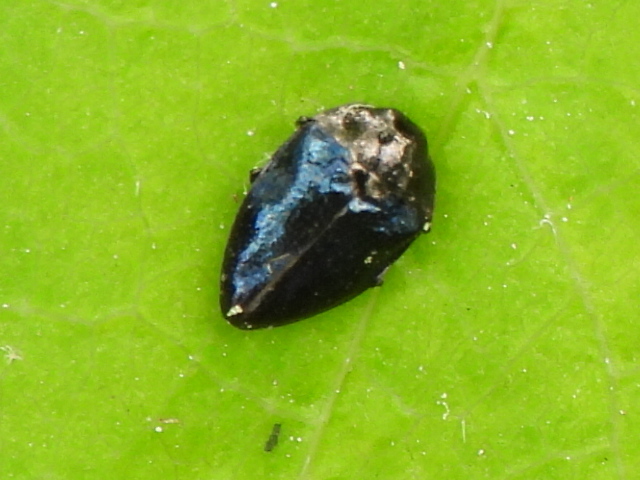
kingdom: Animalia
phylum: Arthropoda
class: Insecta
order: Coleoptera
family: Buprestidae
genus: Pachyschelus
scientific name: Pachyschelus nicolayi
